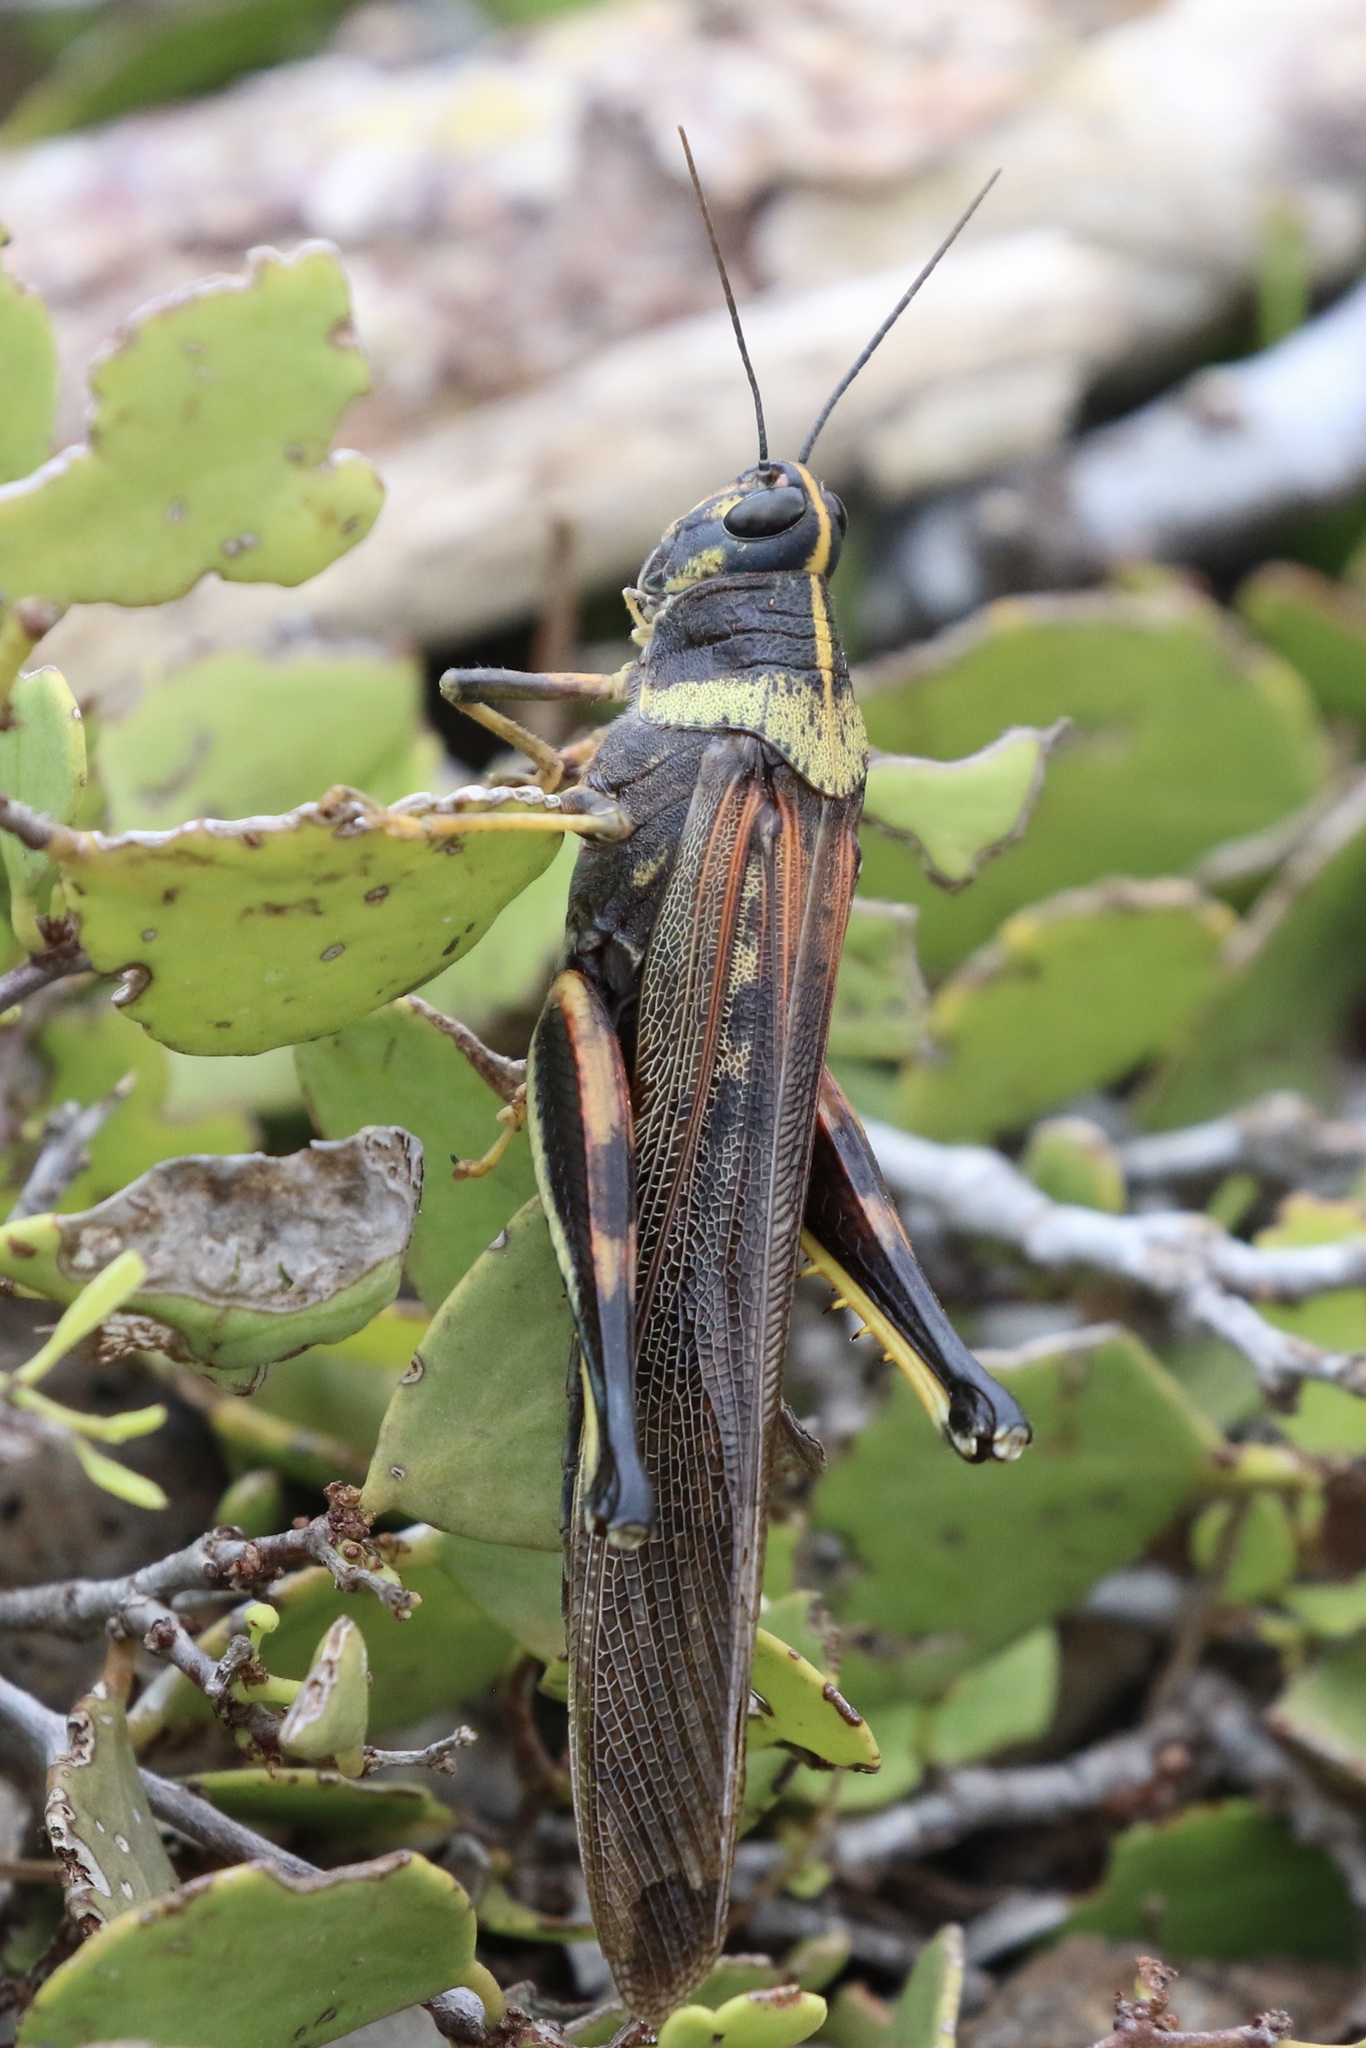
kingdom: Animalia
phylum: Arthropoda
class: Insecta
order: Orthoptera
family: Acrididae
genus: Schistocerca
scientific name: Schistocerca melanocera
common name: Large painted locust
